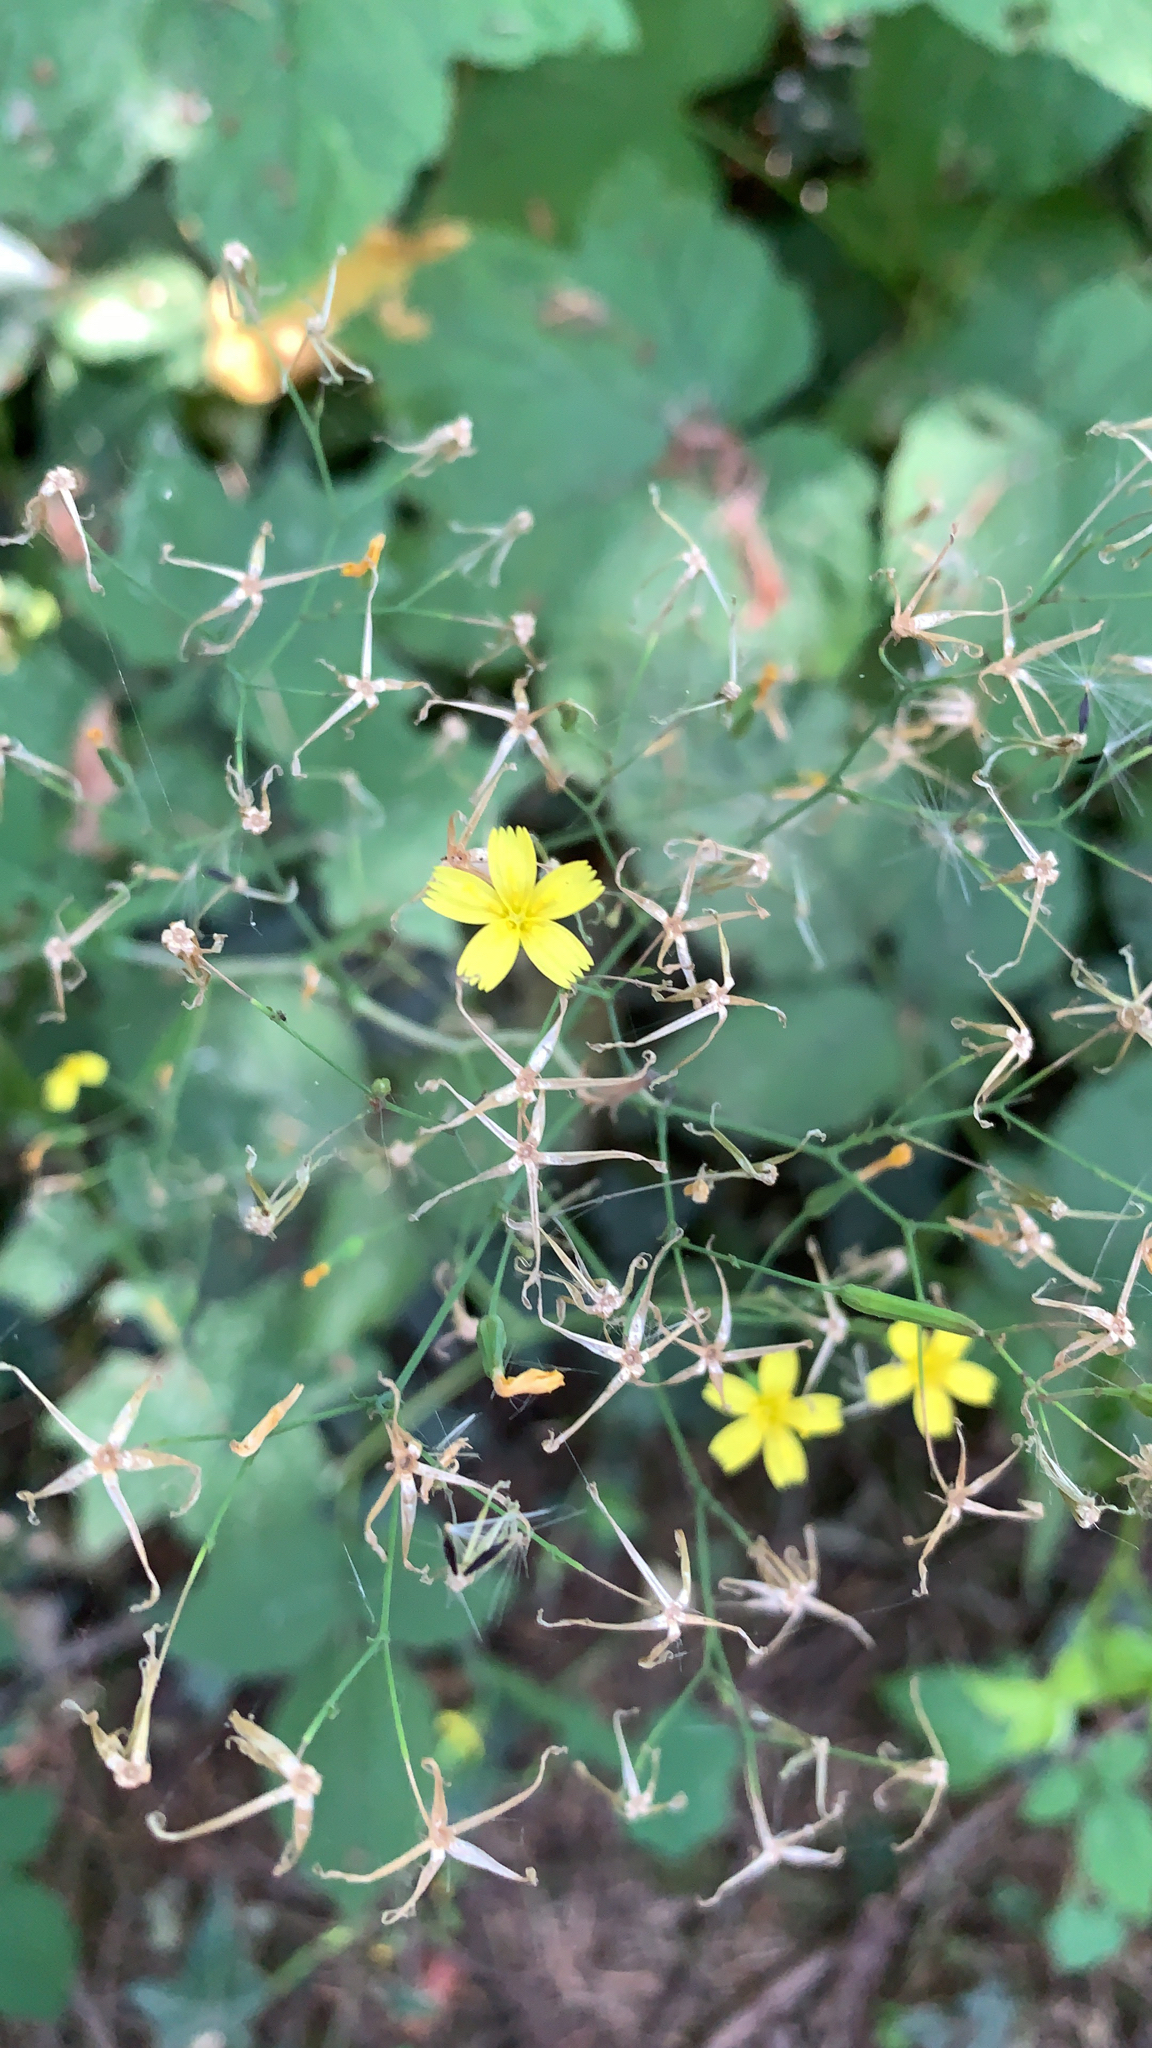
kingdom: Plantae
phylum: Tracheophyta
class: Magnoliopsida
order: Asterales
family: Asteraceae
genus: Mycelis
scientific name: Mycelis muralis
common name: Wall lettuce
